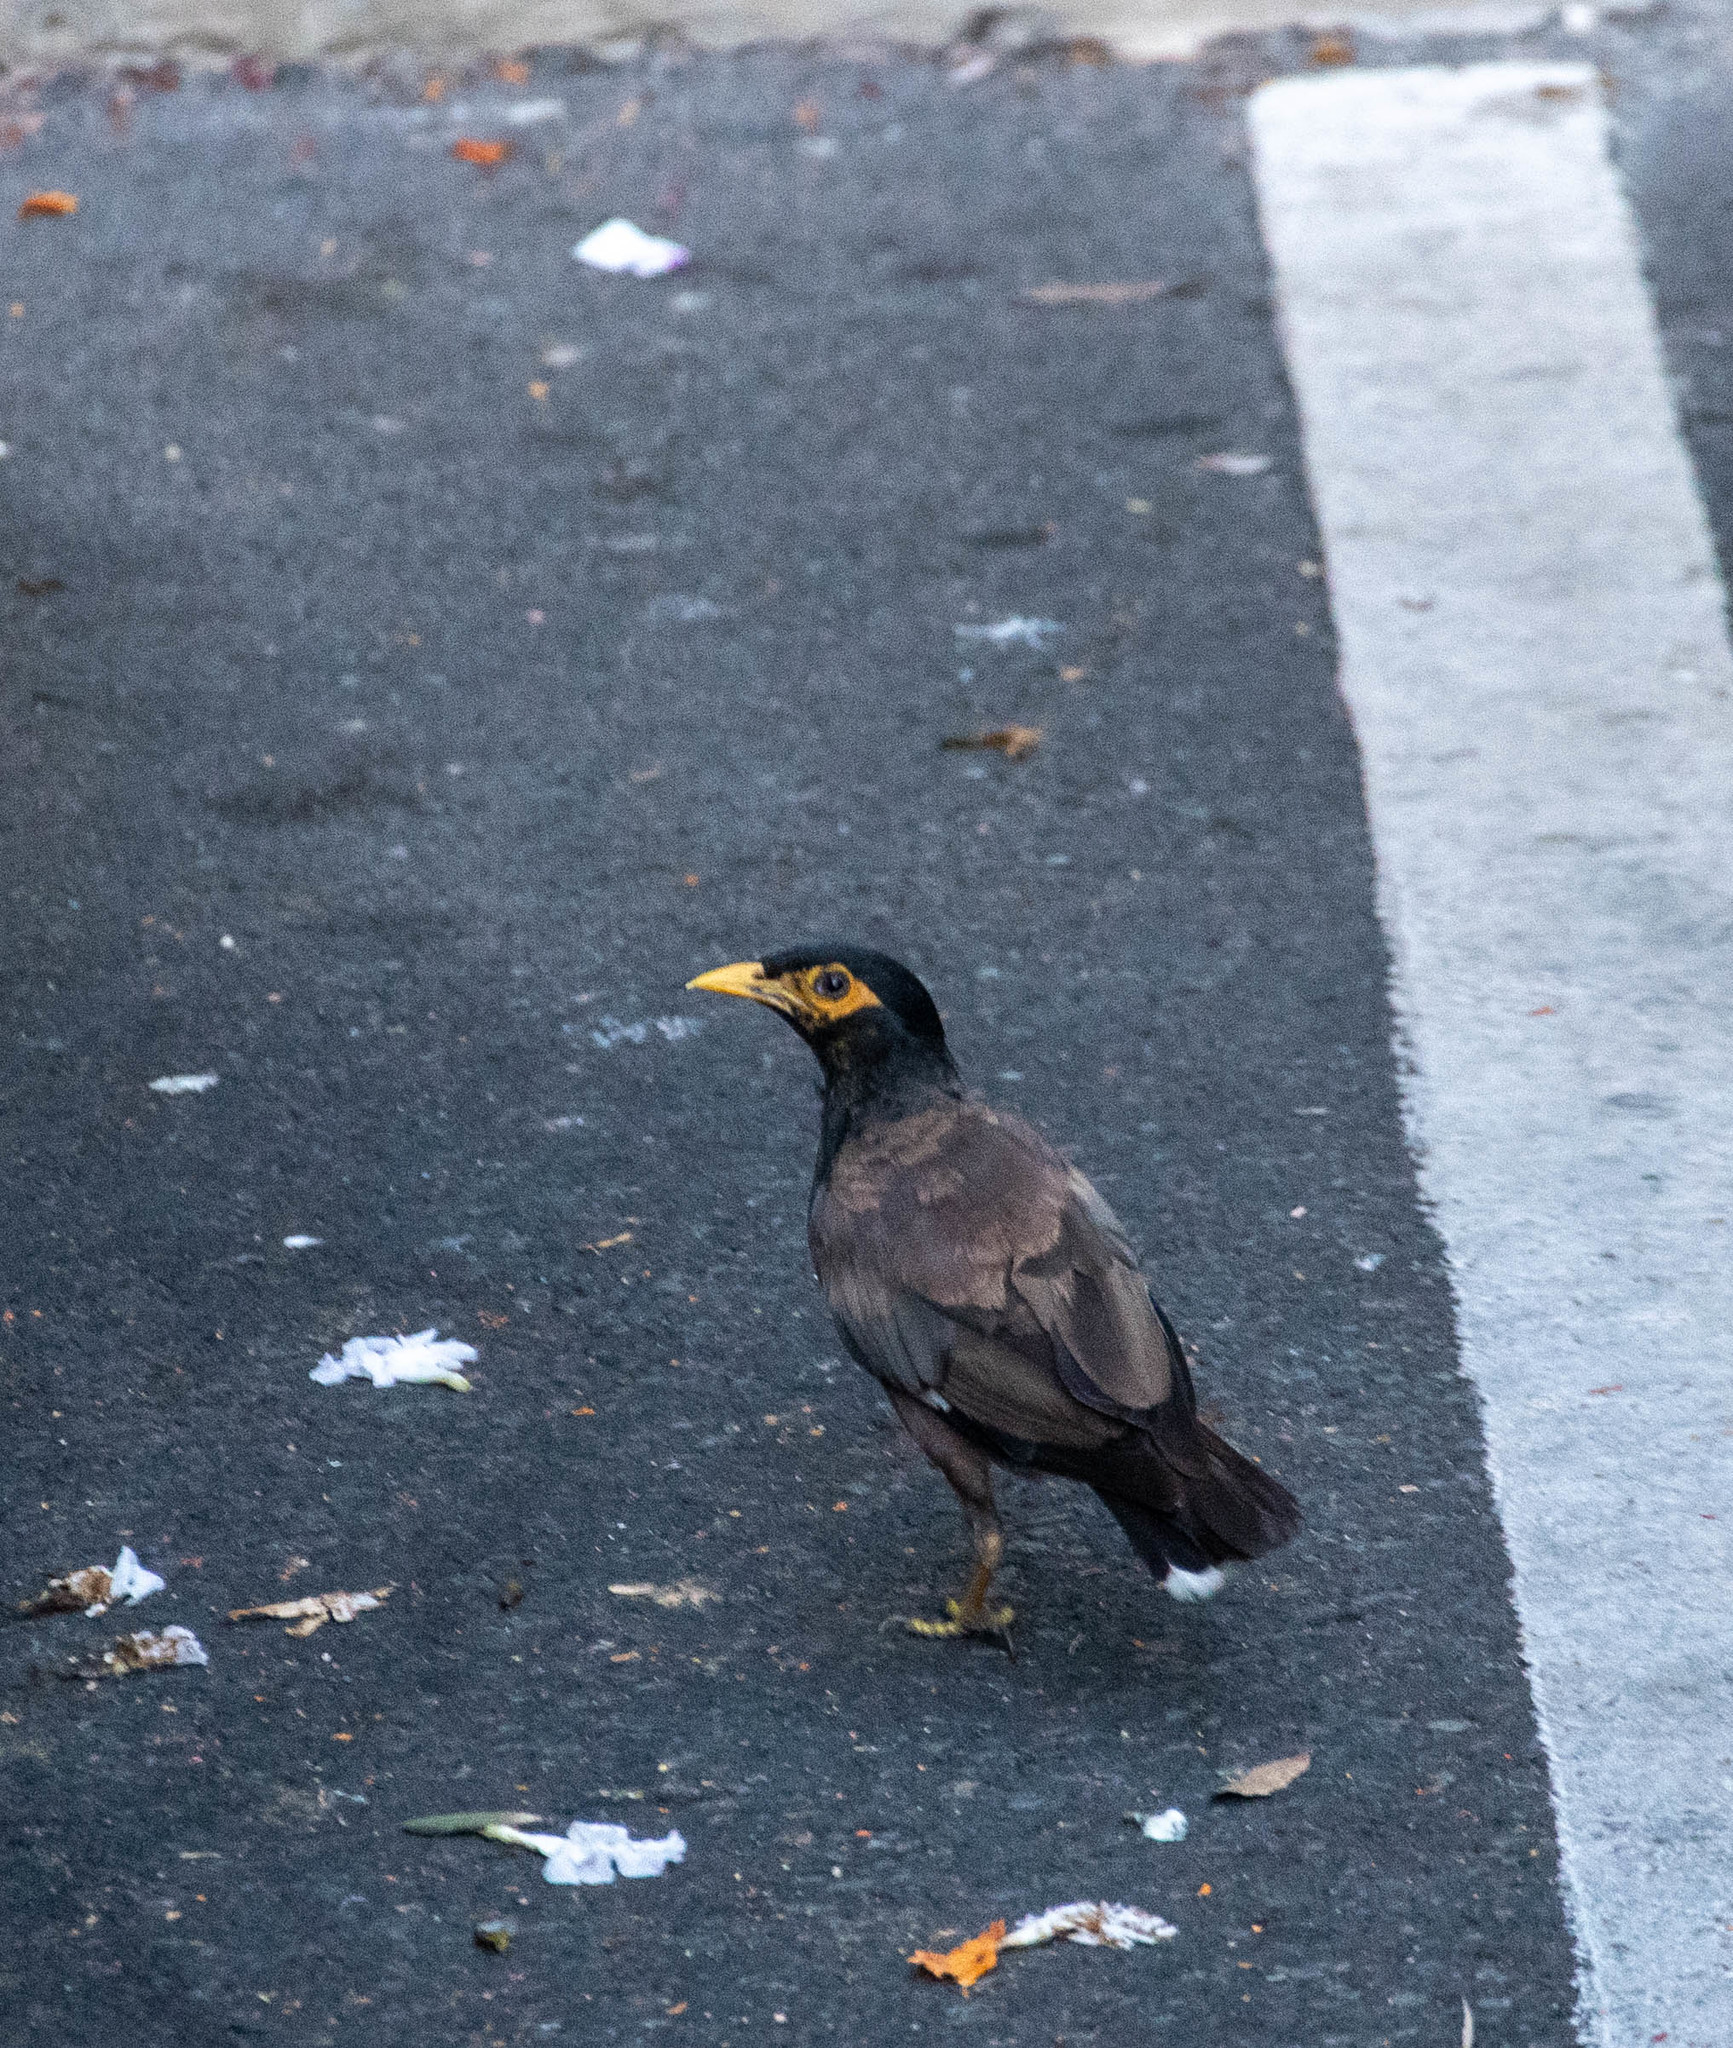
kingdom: Animalia
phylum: Chordata
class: Aves
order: Passeriformes
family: Sturnidae
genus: Acridotheres
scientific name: Acridotheres tristis
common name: Common myna
